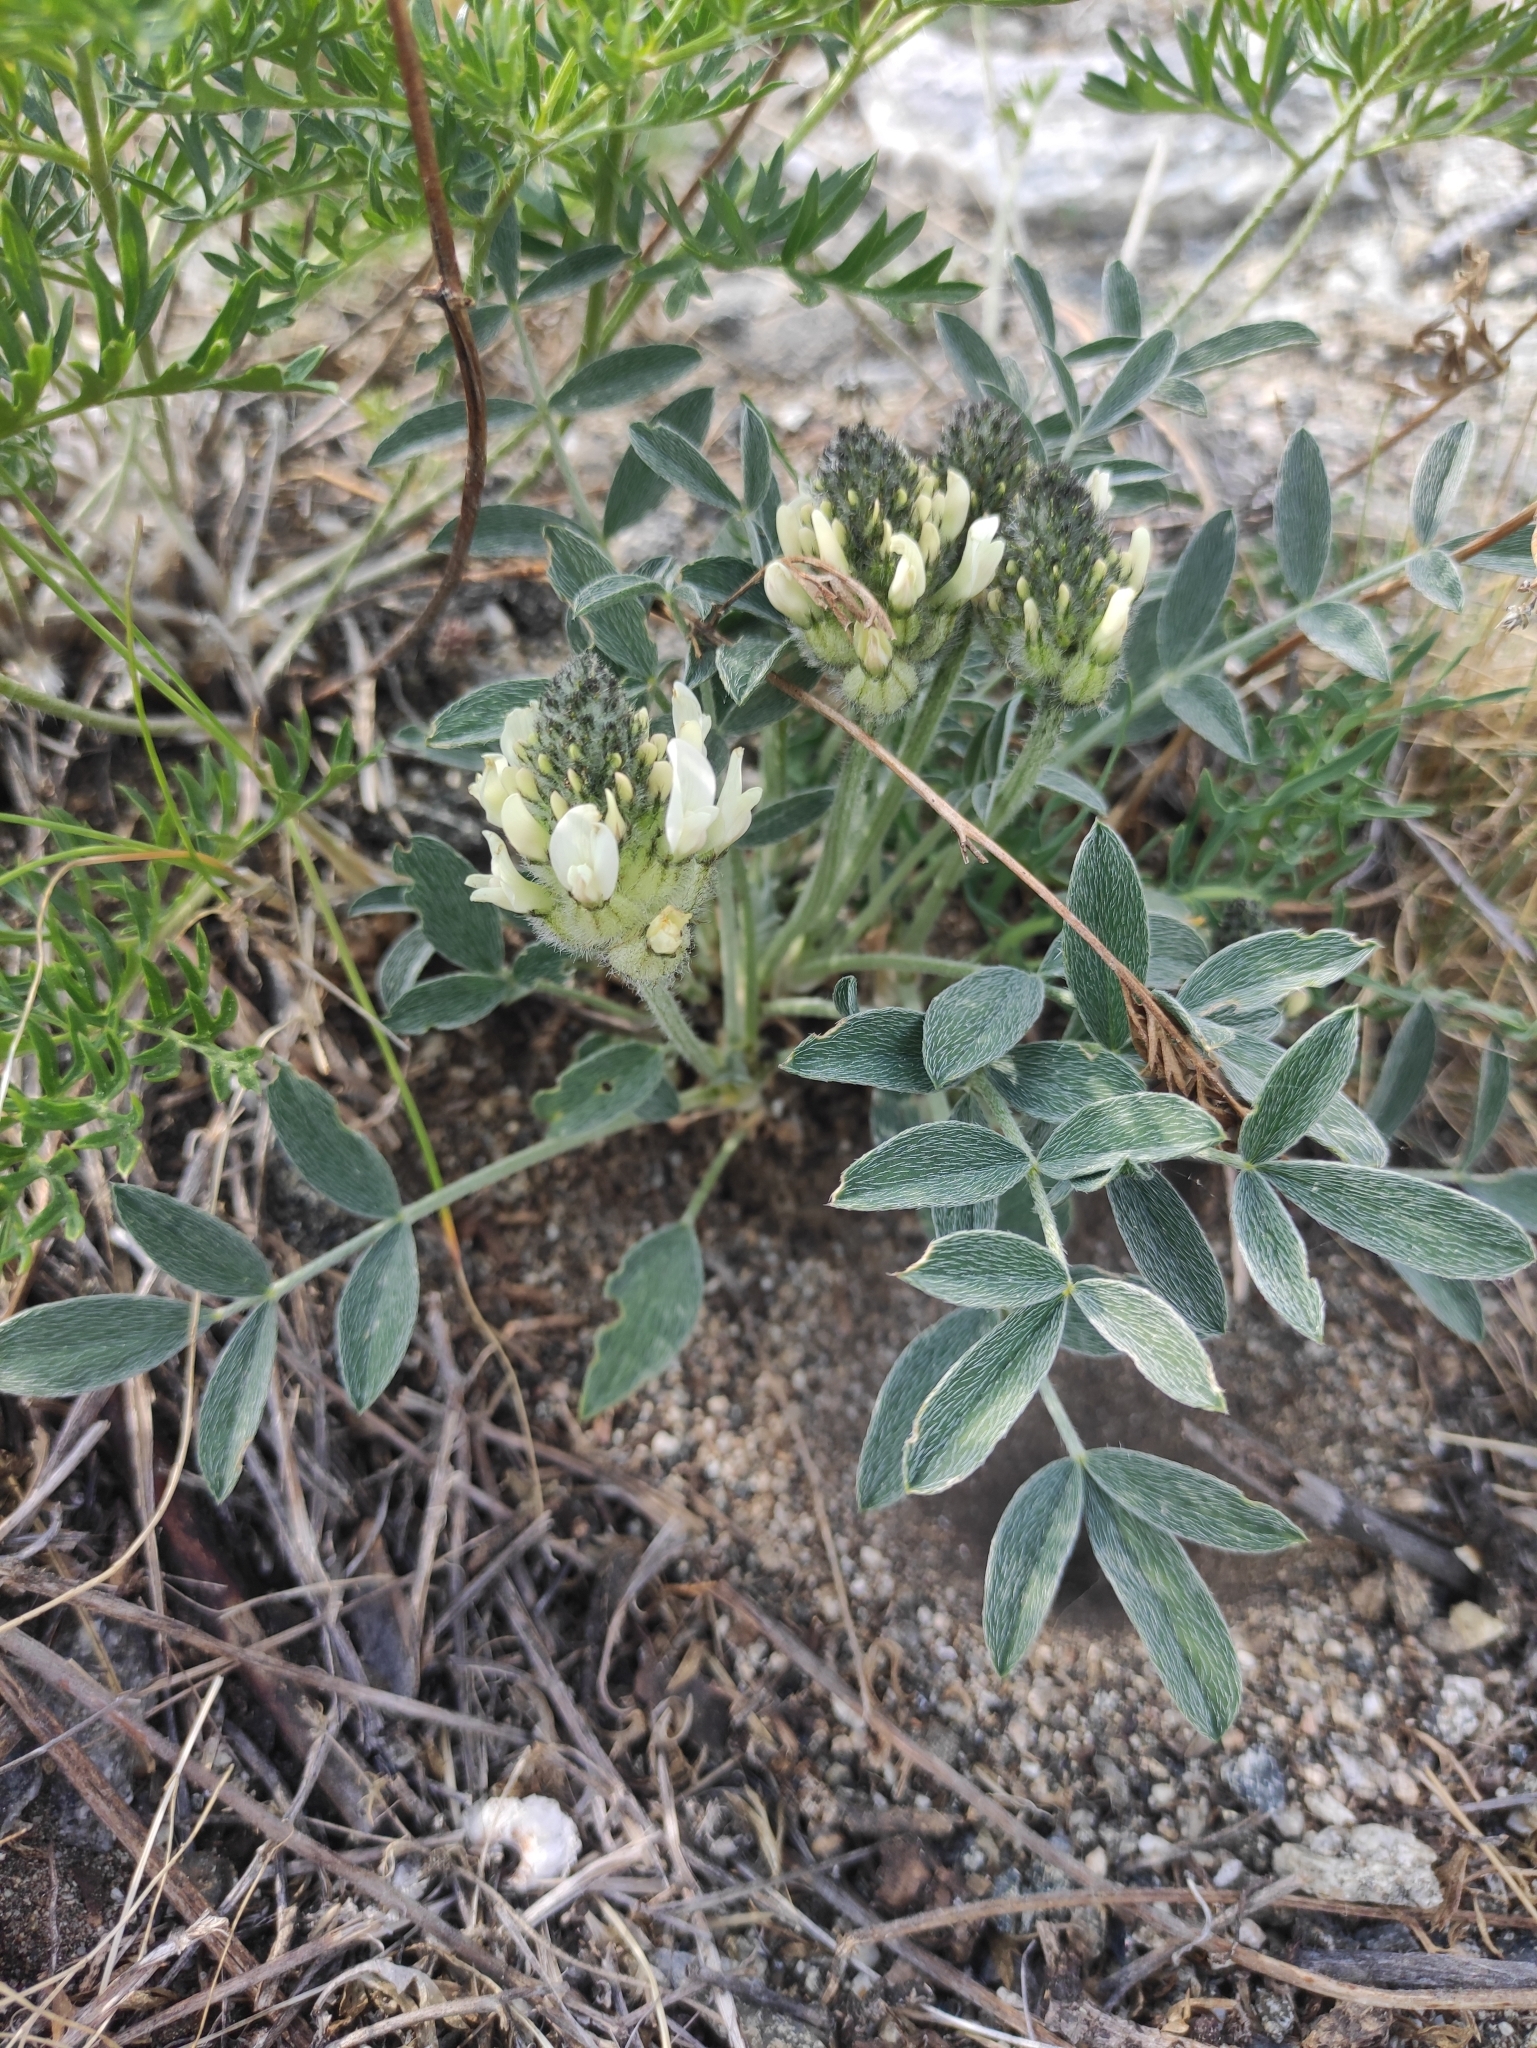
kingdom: Plantae
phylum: Tracheophyta
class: Magnoliopsida
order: Fabales
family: Fabaceae
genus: Astragalus
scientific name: Astragalus lupulinus
